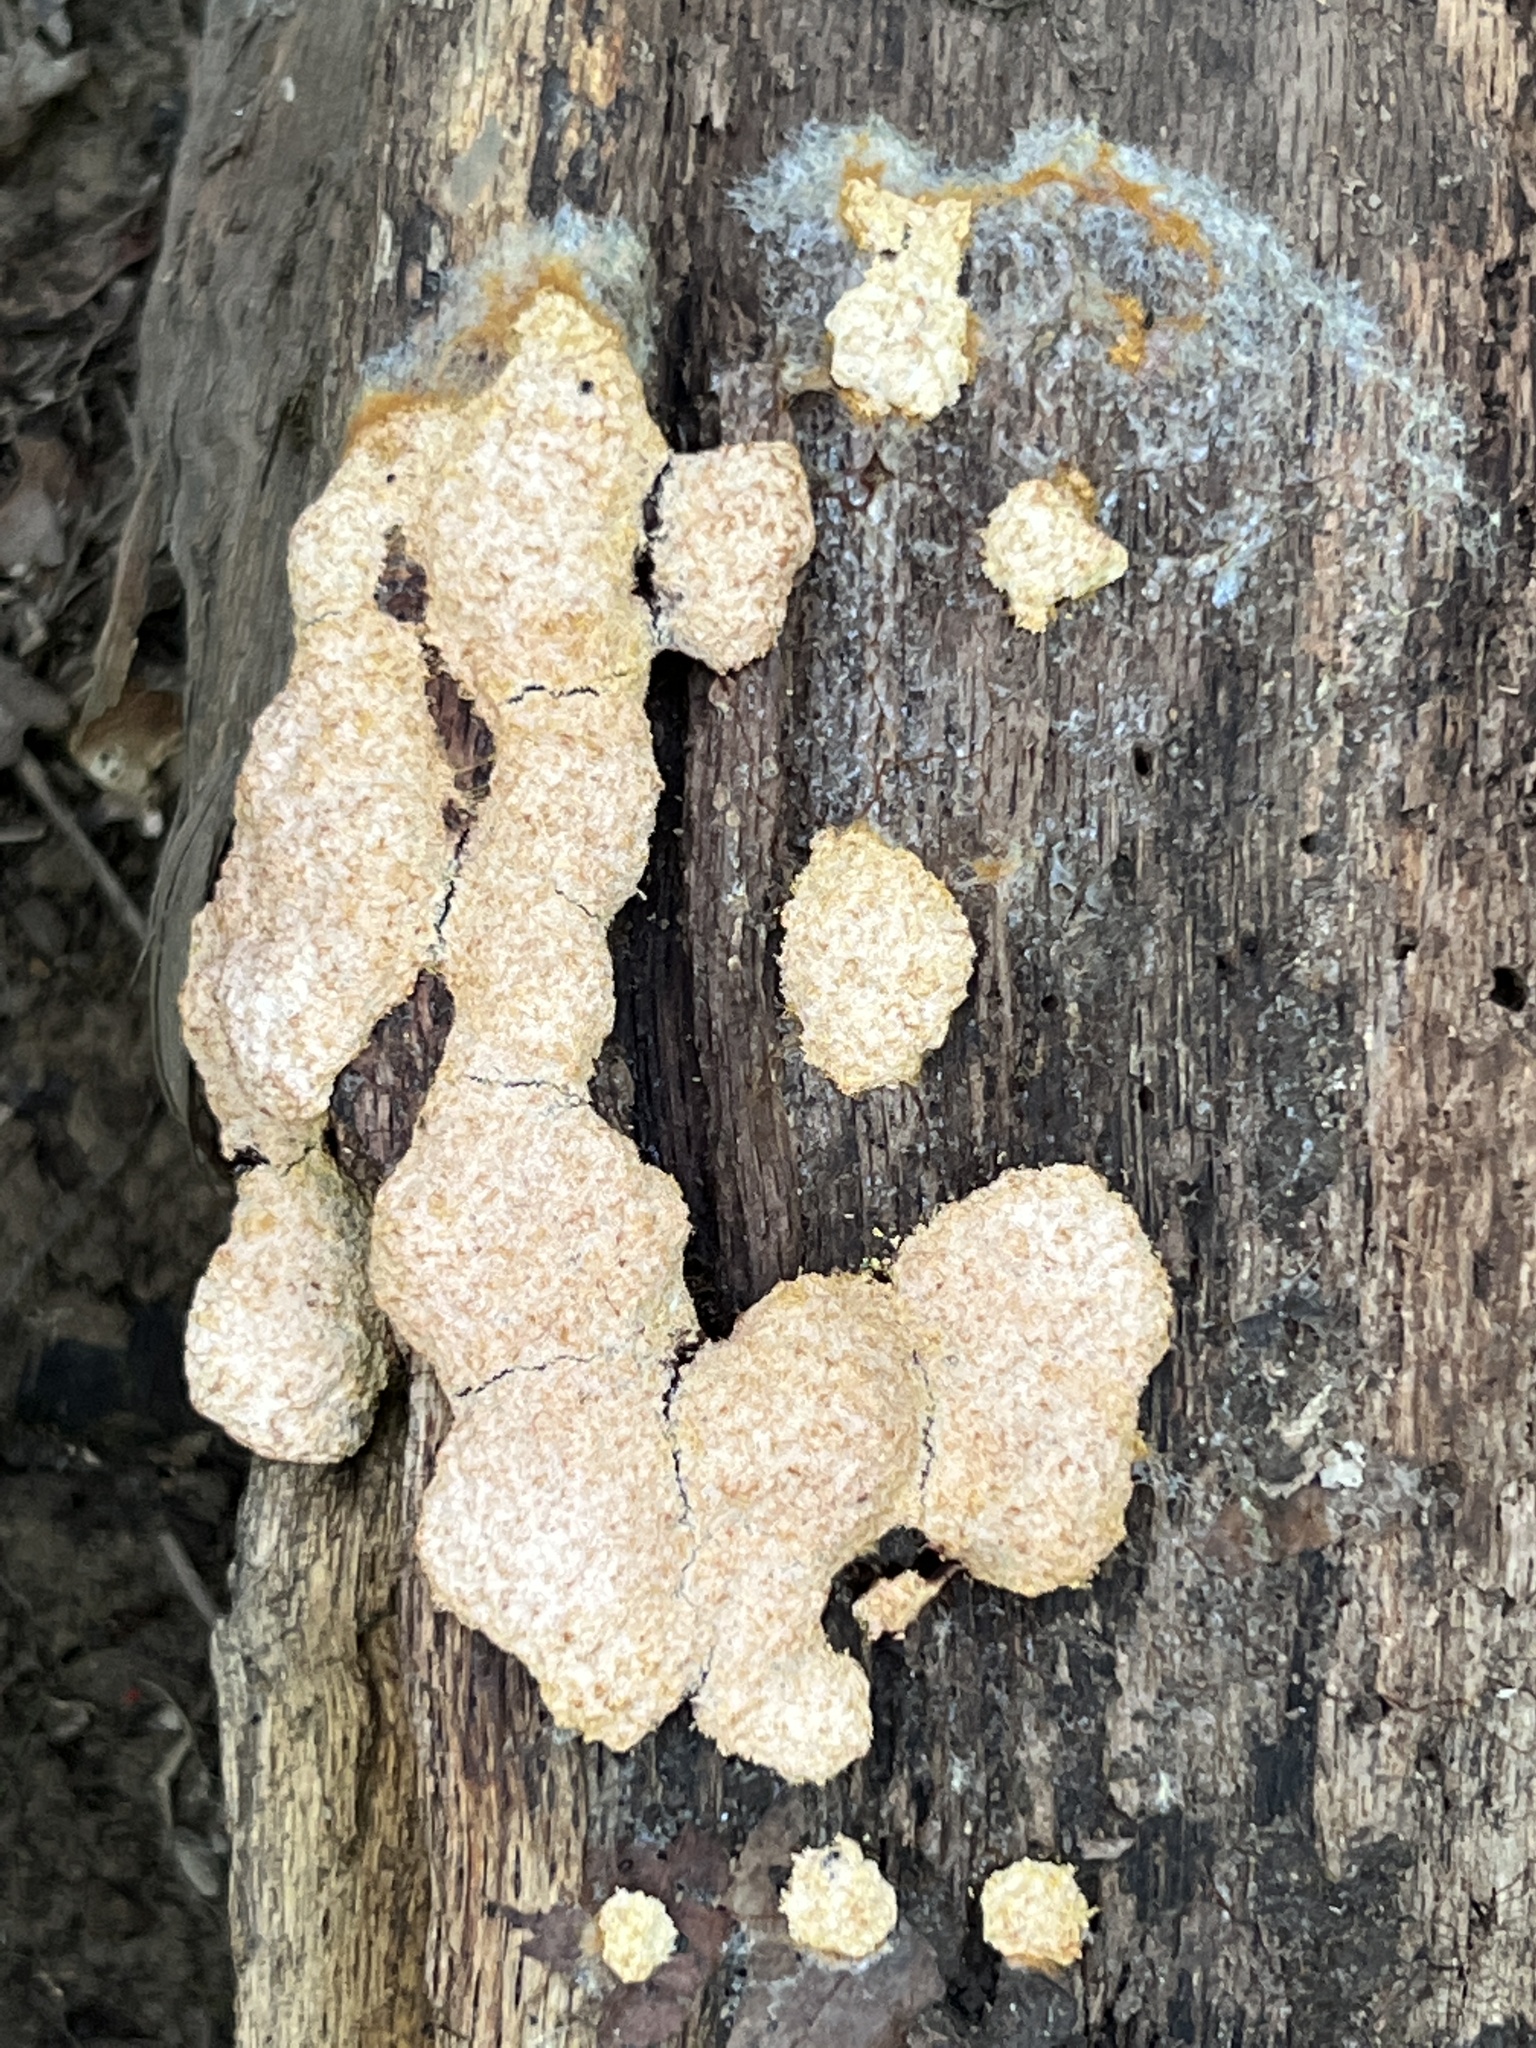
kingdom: Protozoa
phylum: Mycetozoa
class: Myxomycetes
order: Physarales
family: Physaraceae
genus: Fuligo
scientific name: Fuligo septica
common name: Dog vomit slime mold
